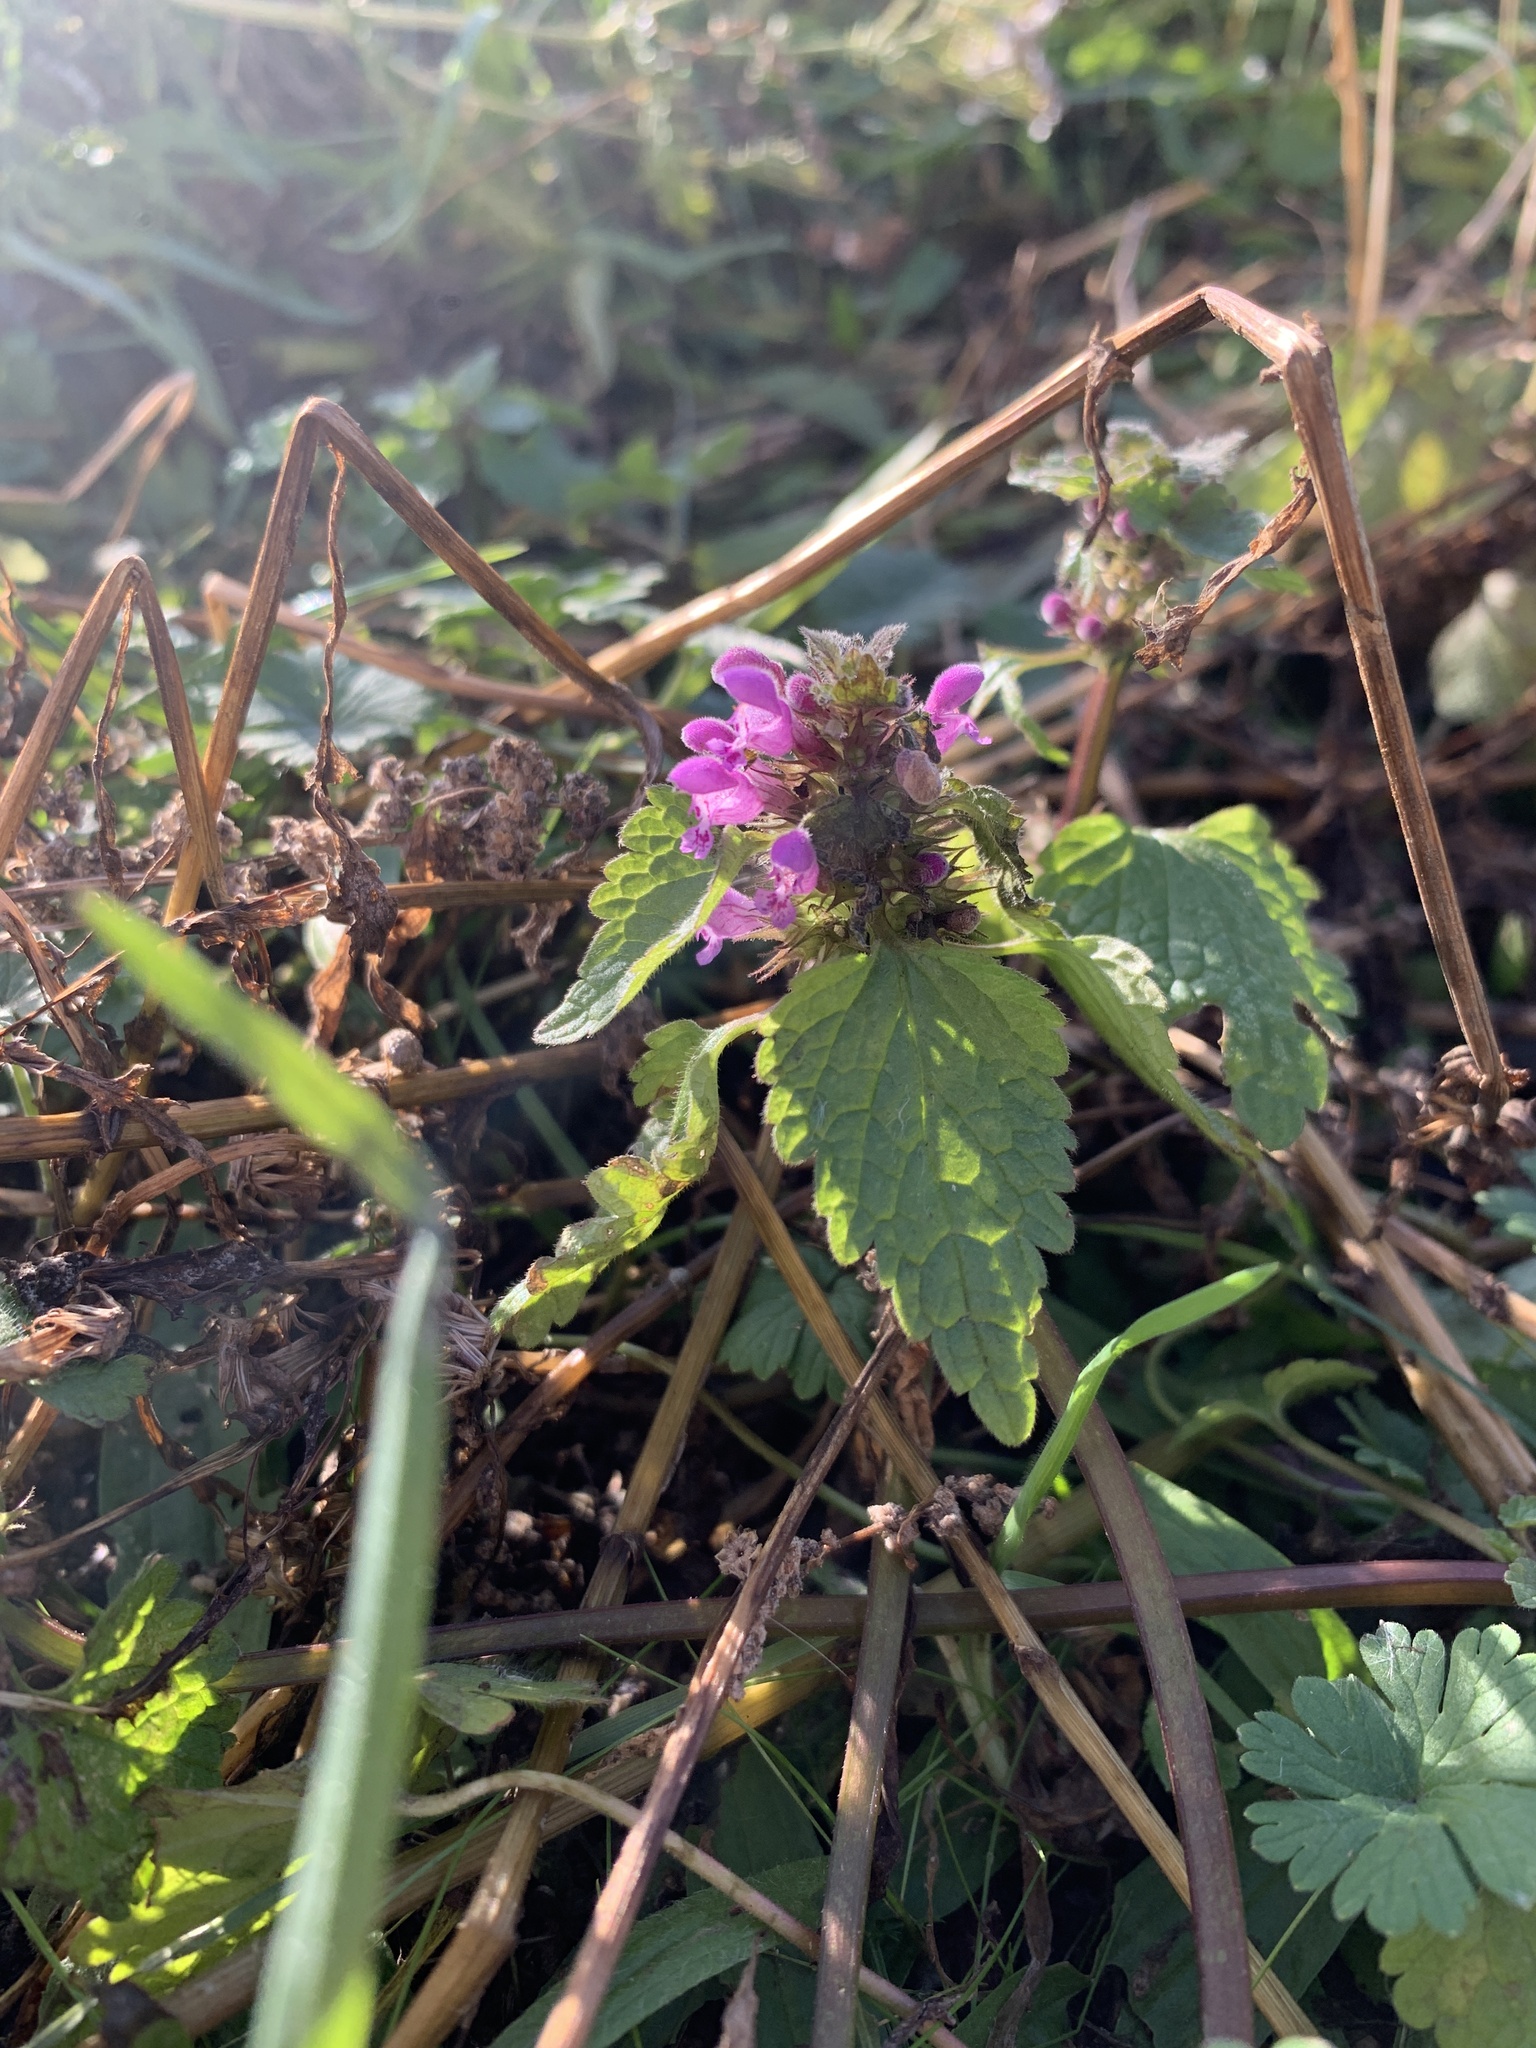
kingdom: Plantae
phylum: Tracheophyta
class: Magnoliopsida
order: Lamiales
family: Lamiaceae
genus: Lamium
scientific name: Lamium purpureum
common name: Red dead-nettle
